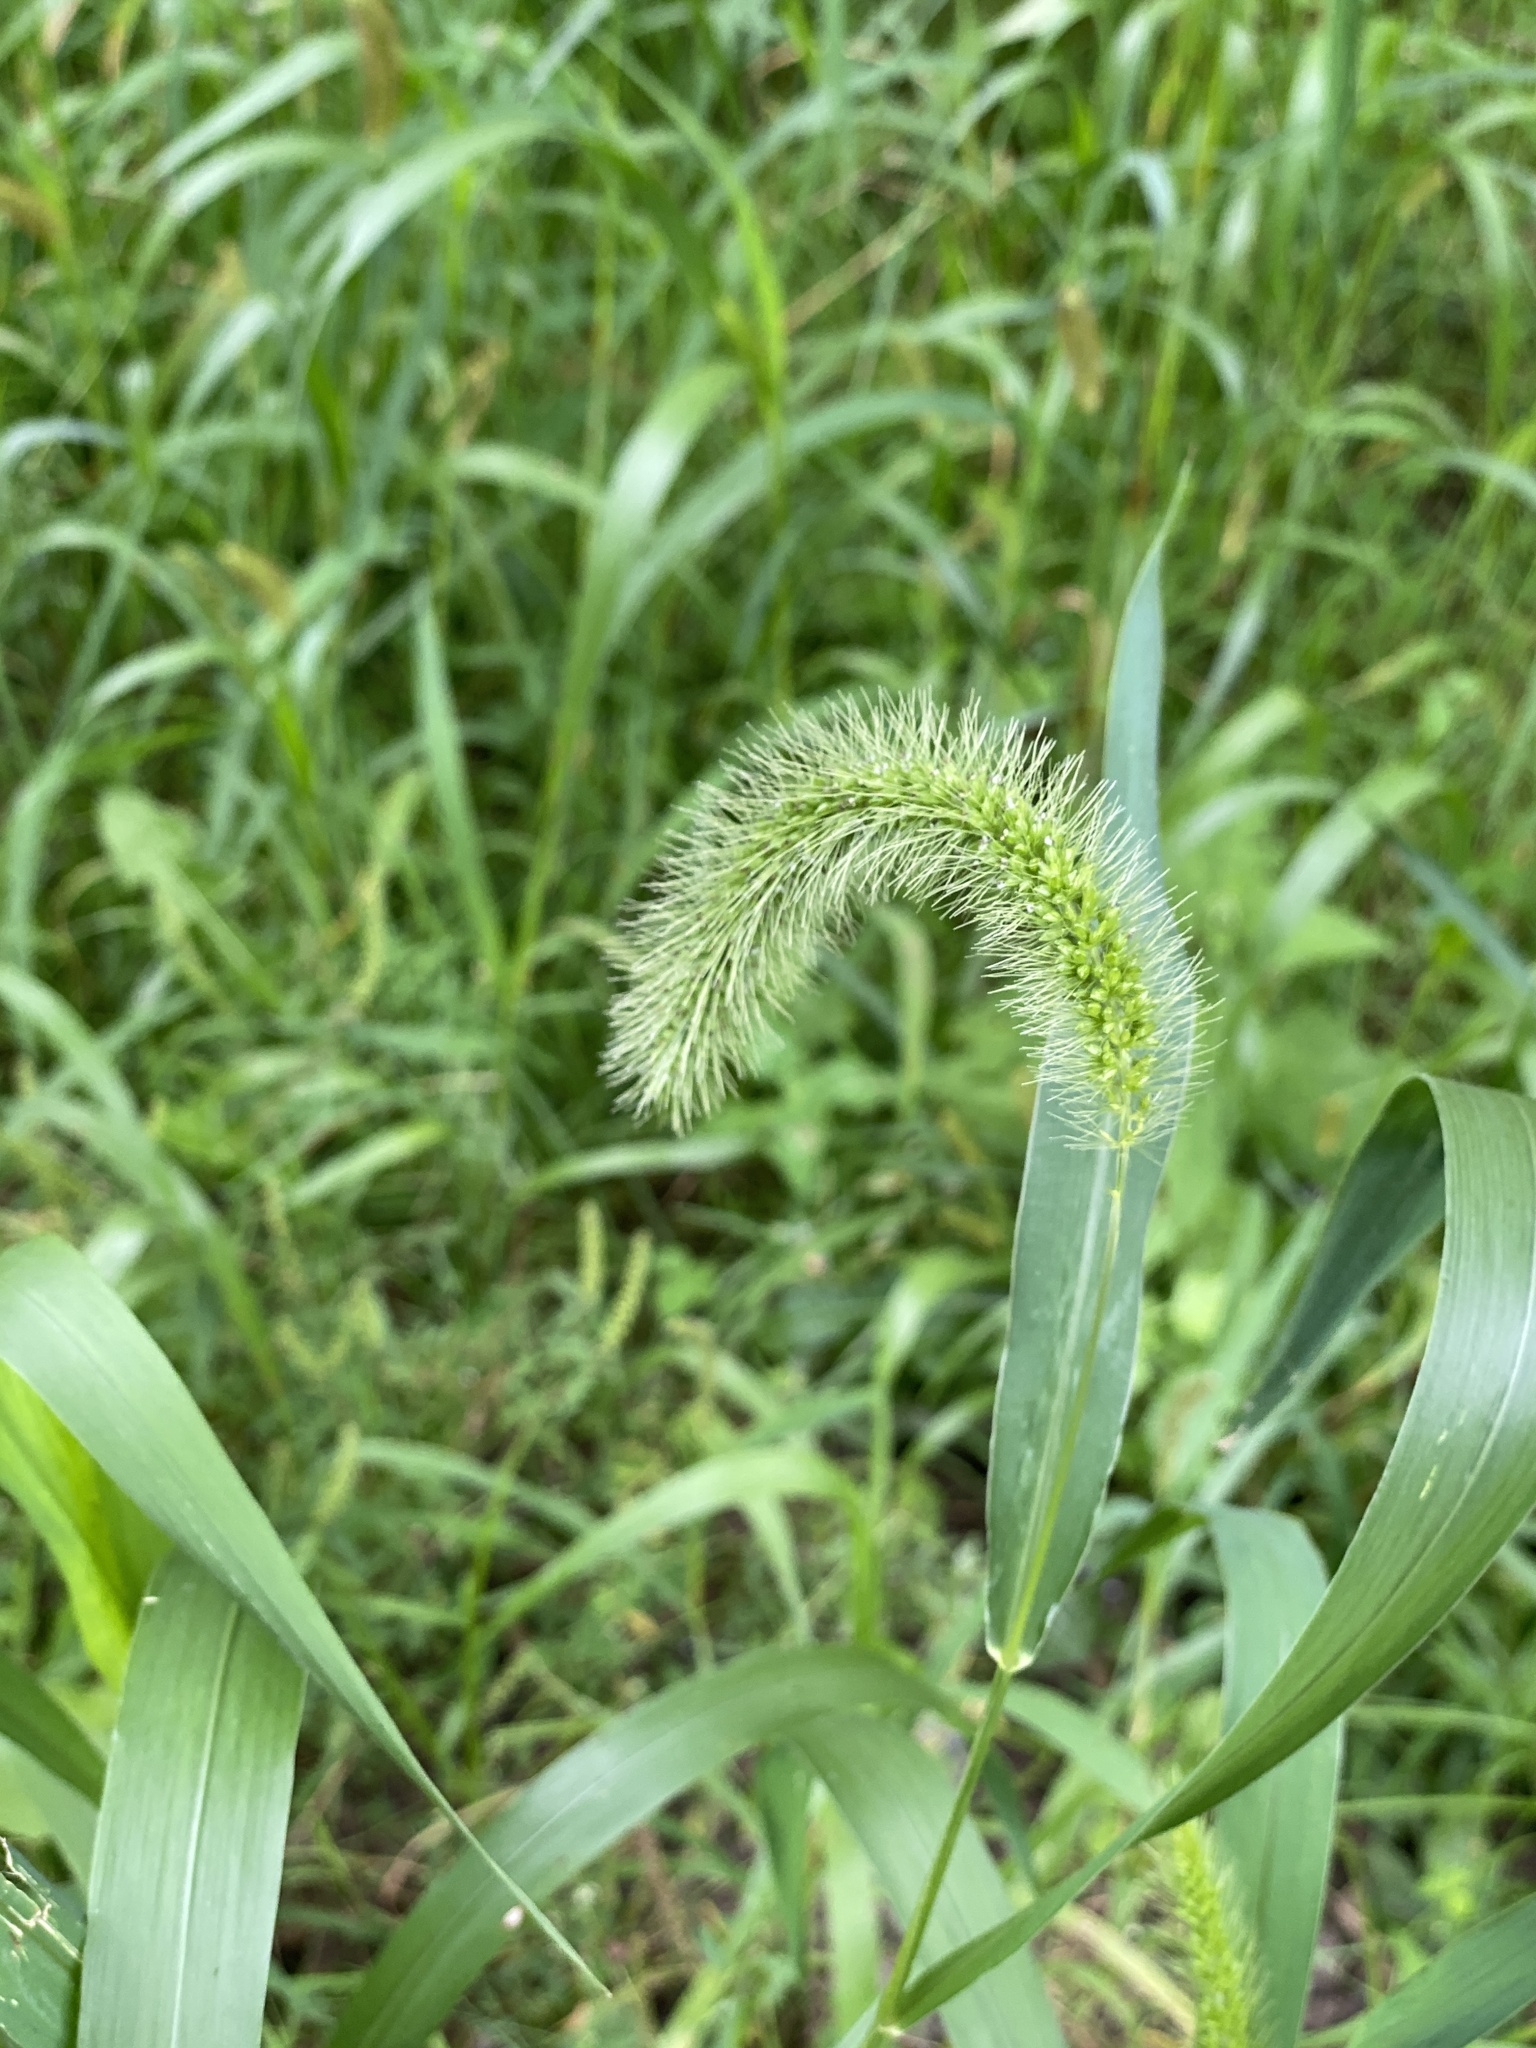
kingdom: Plantae
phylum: Tracheophyta
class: Liliopsida
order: Poales
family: Poaceae
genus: Setaria
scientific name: Setaria faberi
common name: Nodding bristle-grass
